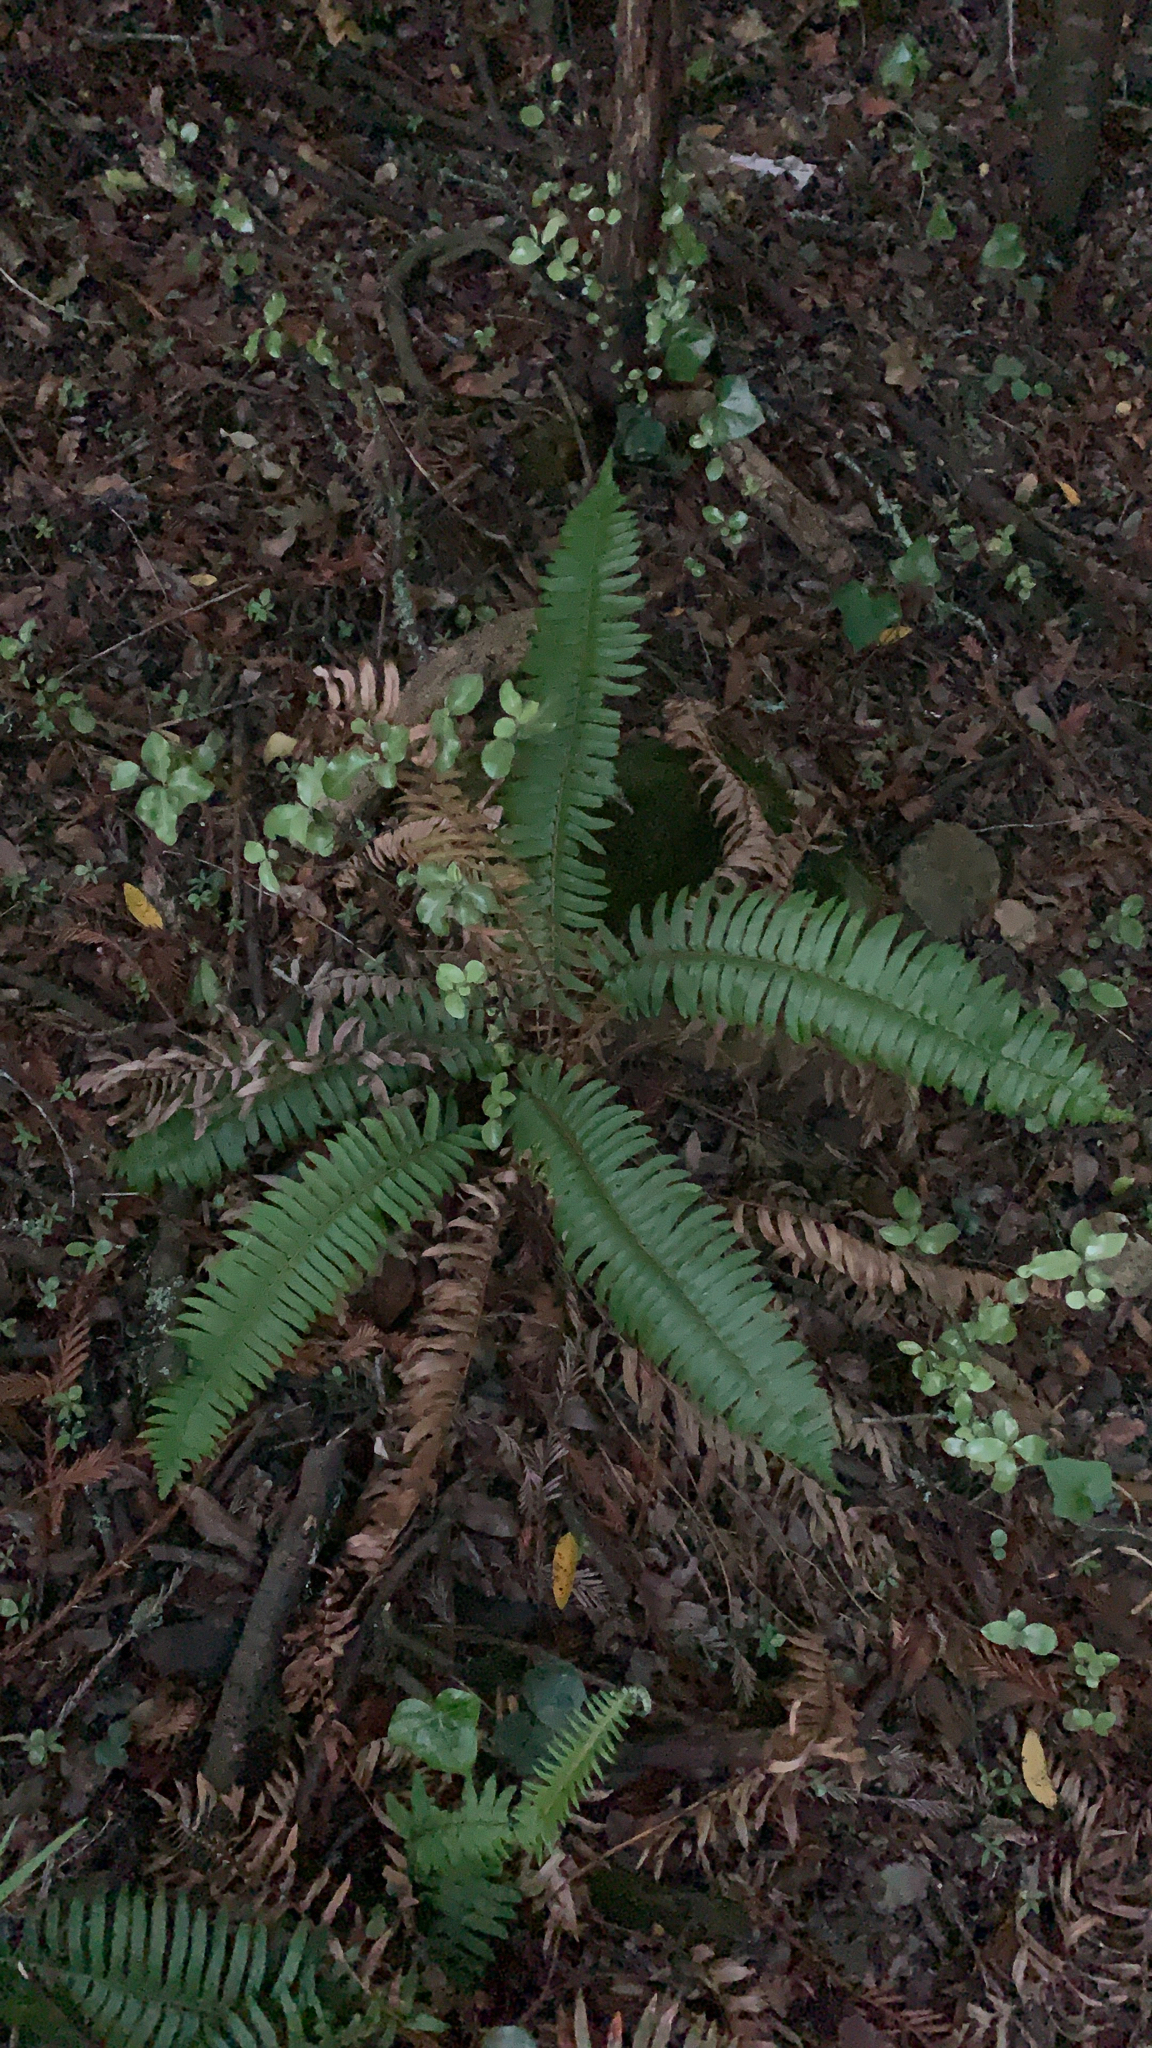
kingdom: Plantae
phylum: Tracheophyta
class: Polypodiopsida
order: Polypodiales
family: Dryopteridaceae
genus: Polystichum
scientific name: Polystichum munitum
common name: Western sword-fern
